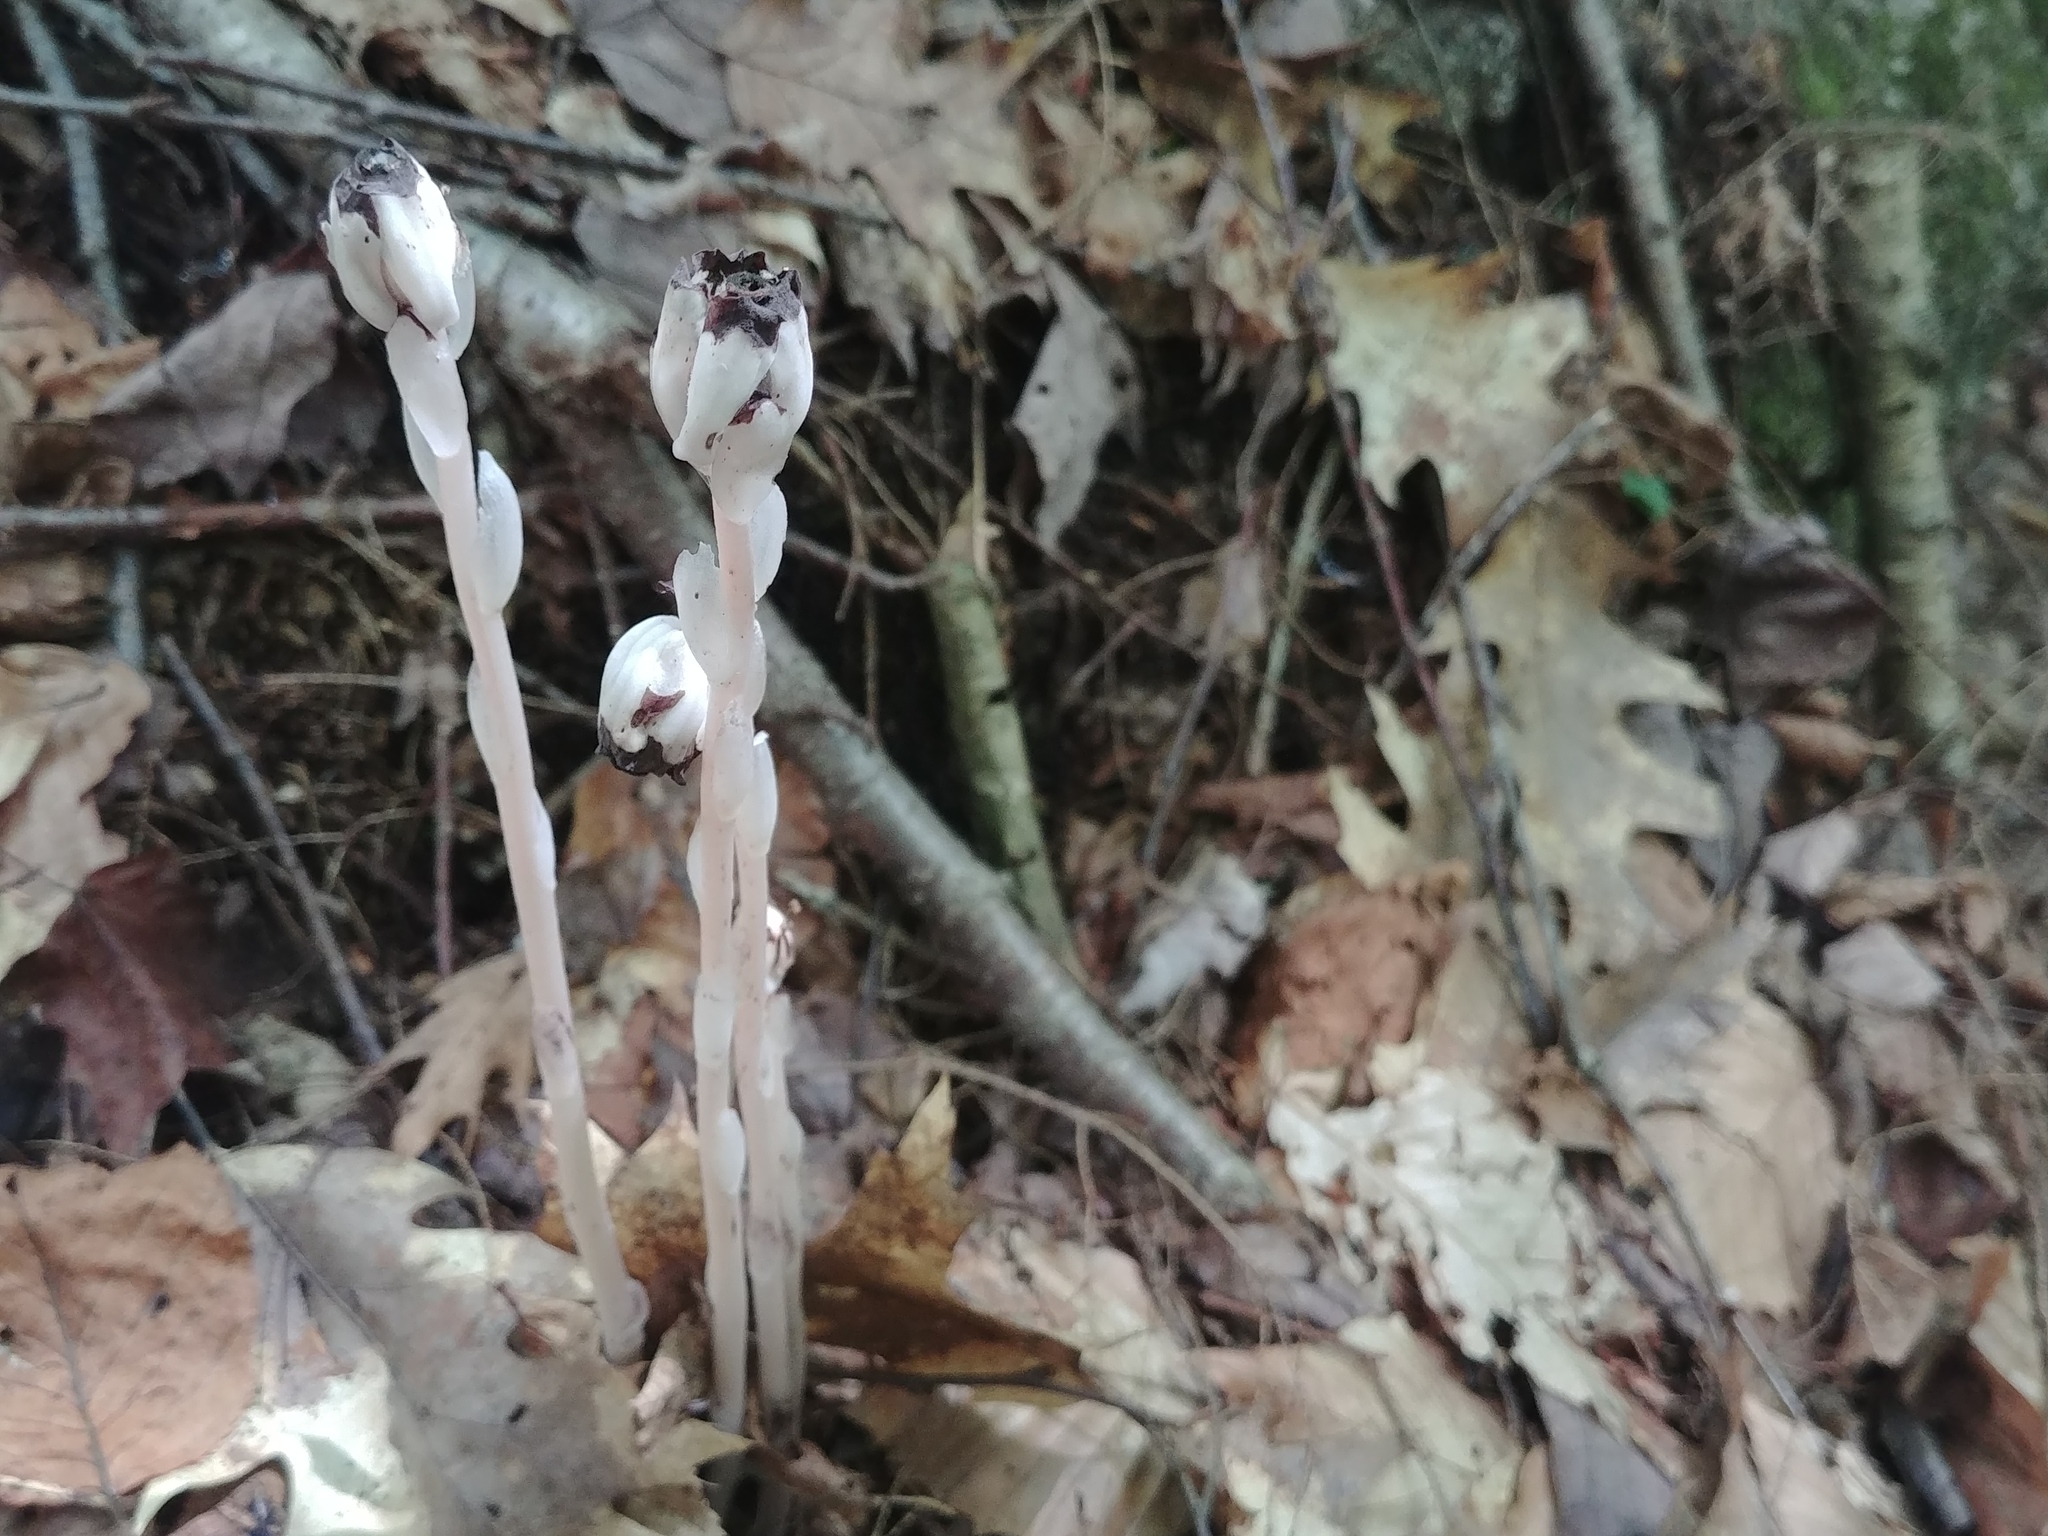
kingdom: Plantae
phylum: Tracheophyta
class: Magnoliopsida
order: Ericales
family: Ericaceae
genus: Monotropa
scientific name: Monotropa uniflora
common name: Convulsion root
